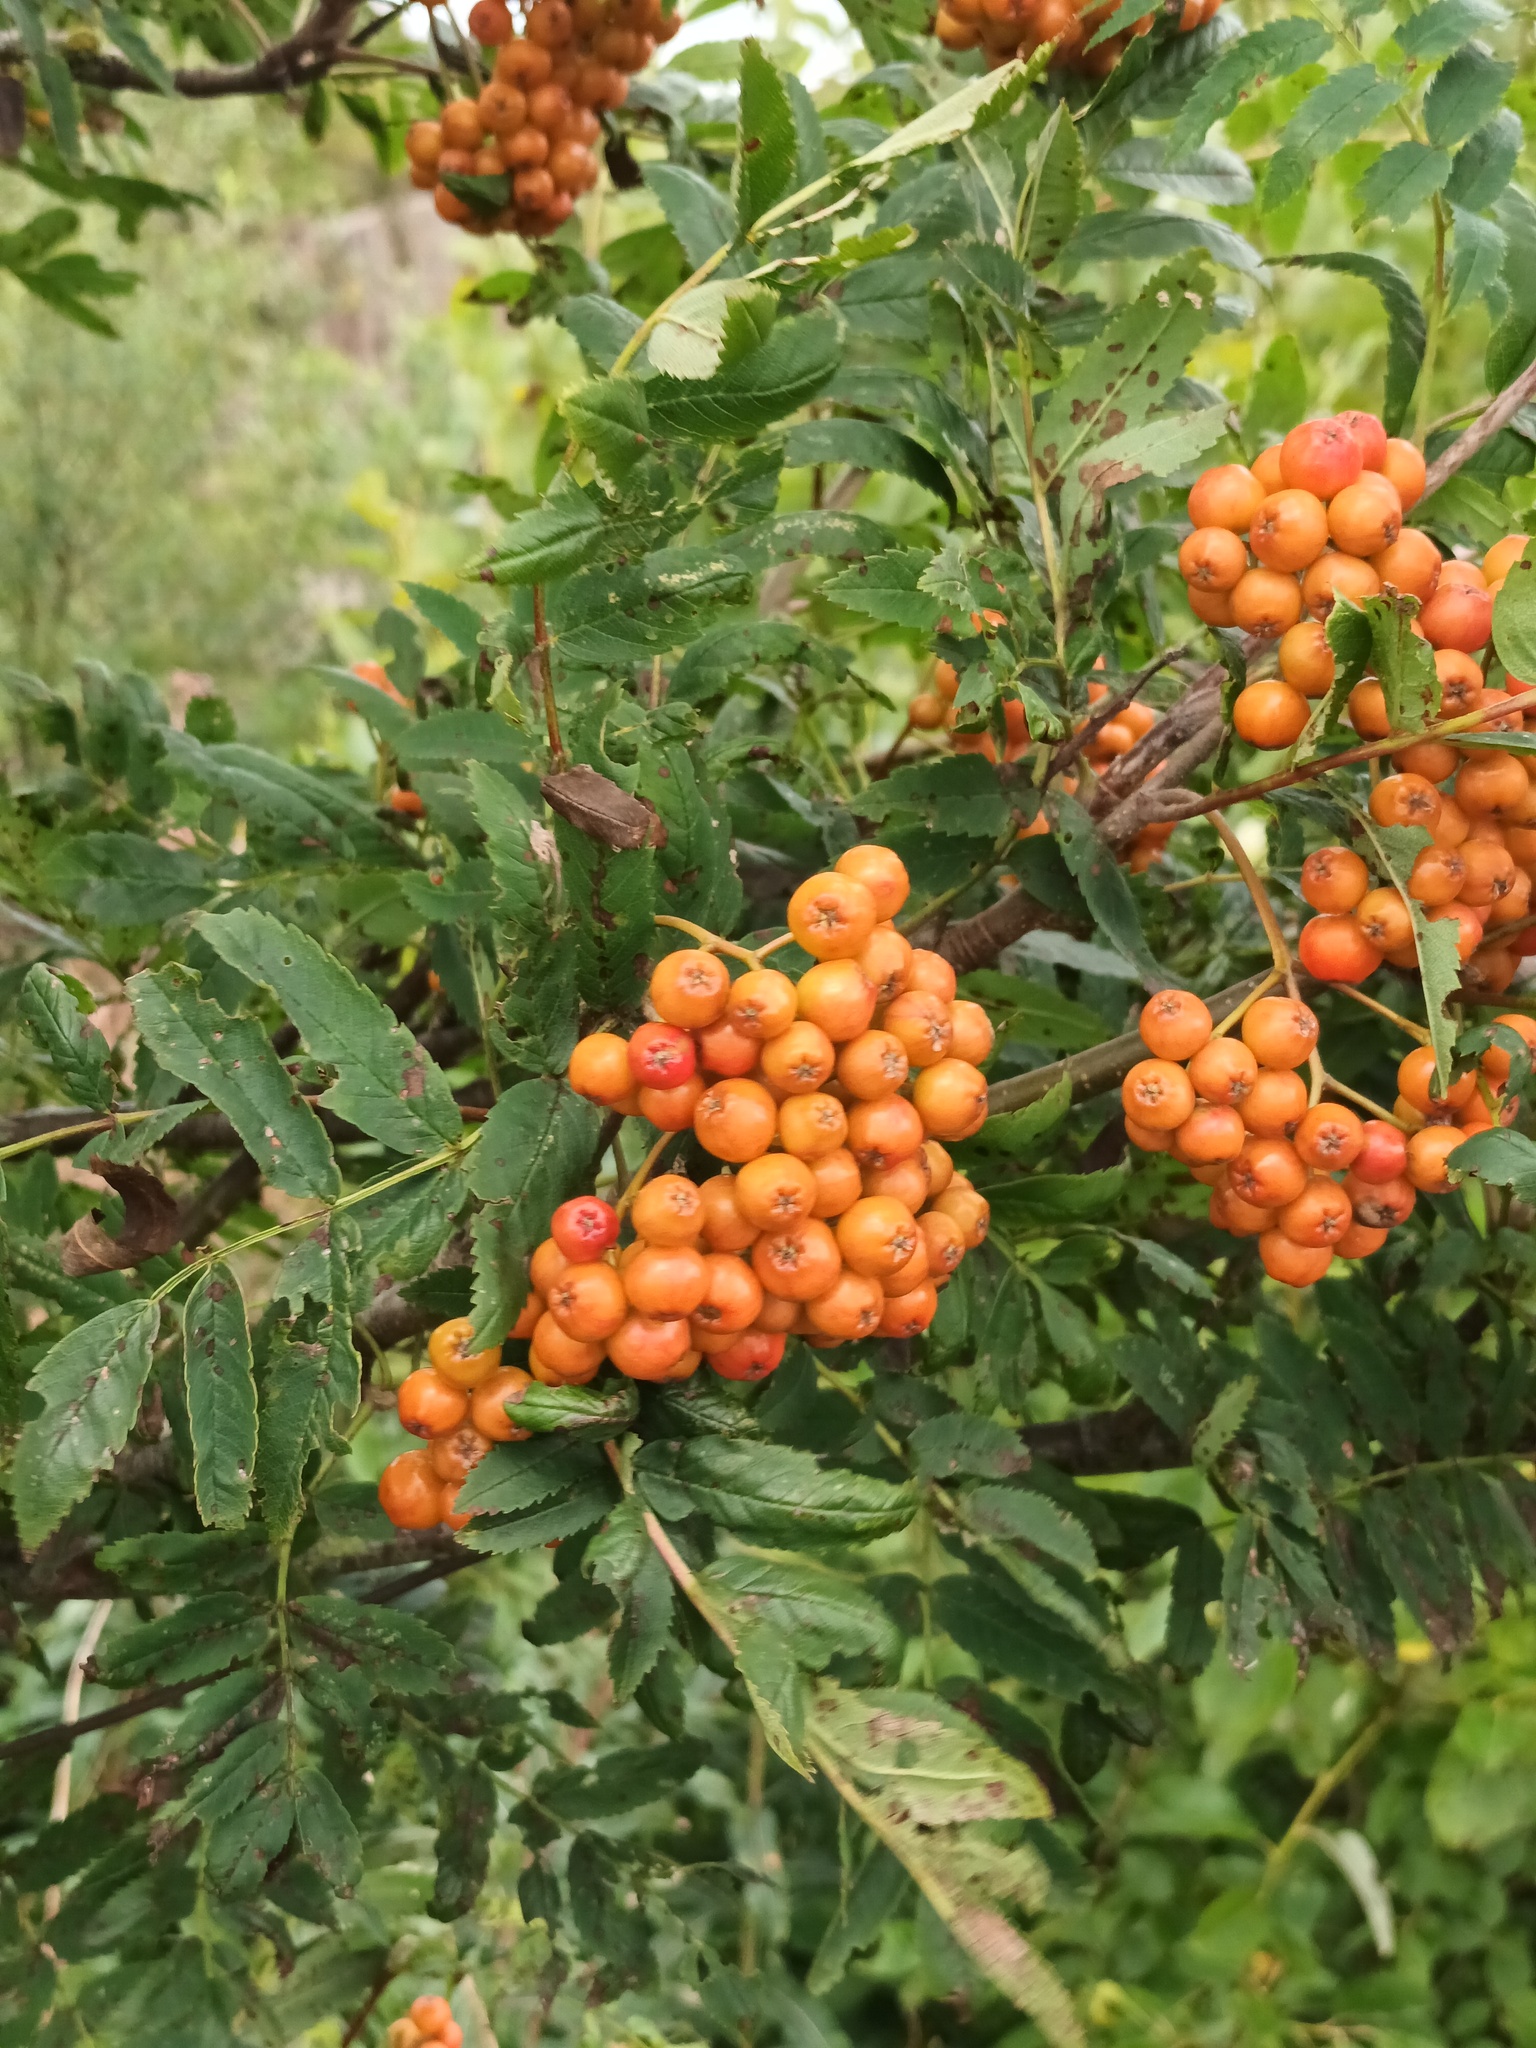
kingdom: Plantae
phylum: Tracheophyta
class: Magnoliopsida
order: Rosales
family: Rosaceae
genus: Sorbus
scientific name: Sorbus aucuparia
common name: Rowan
